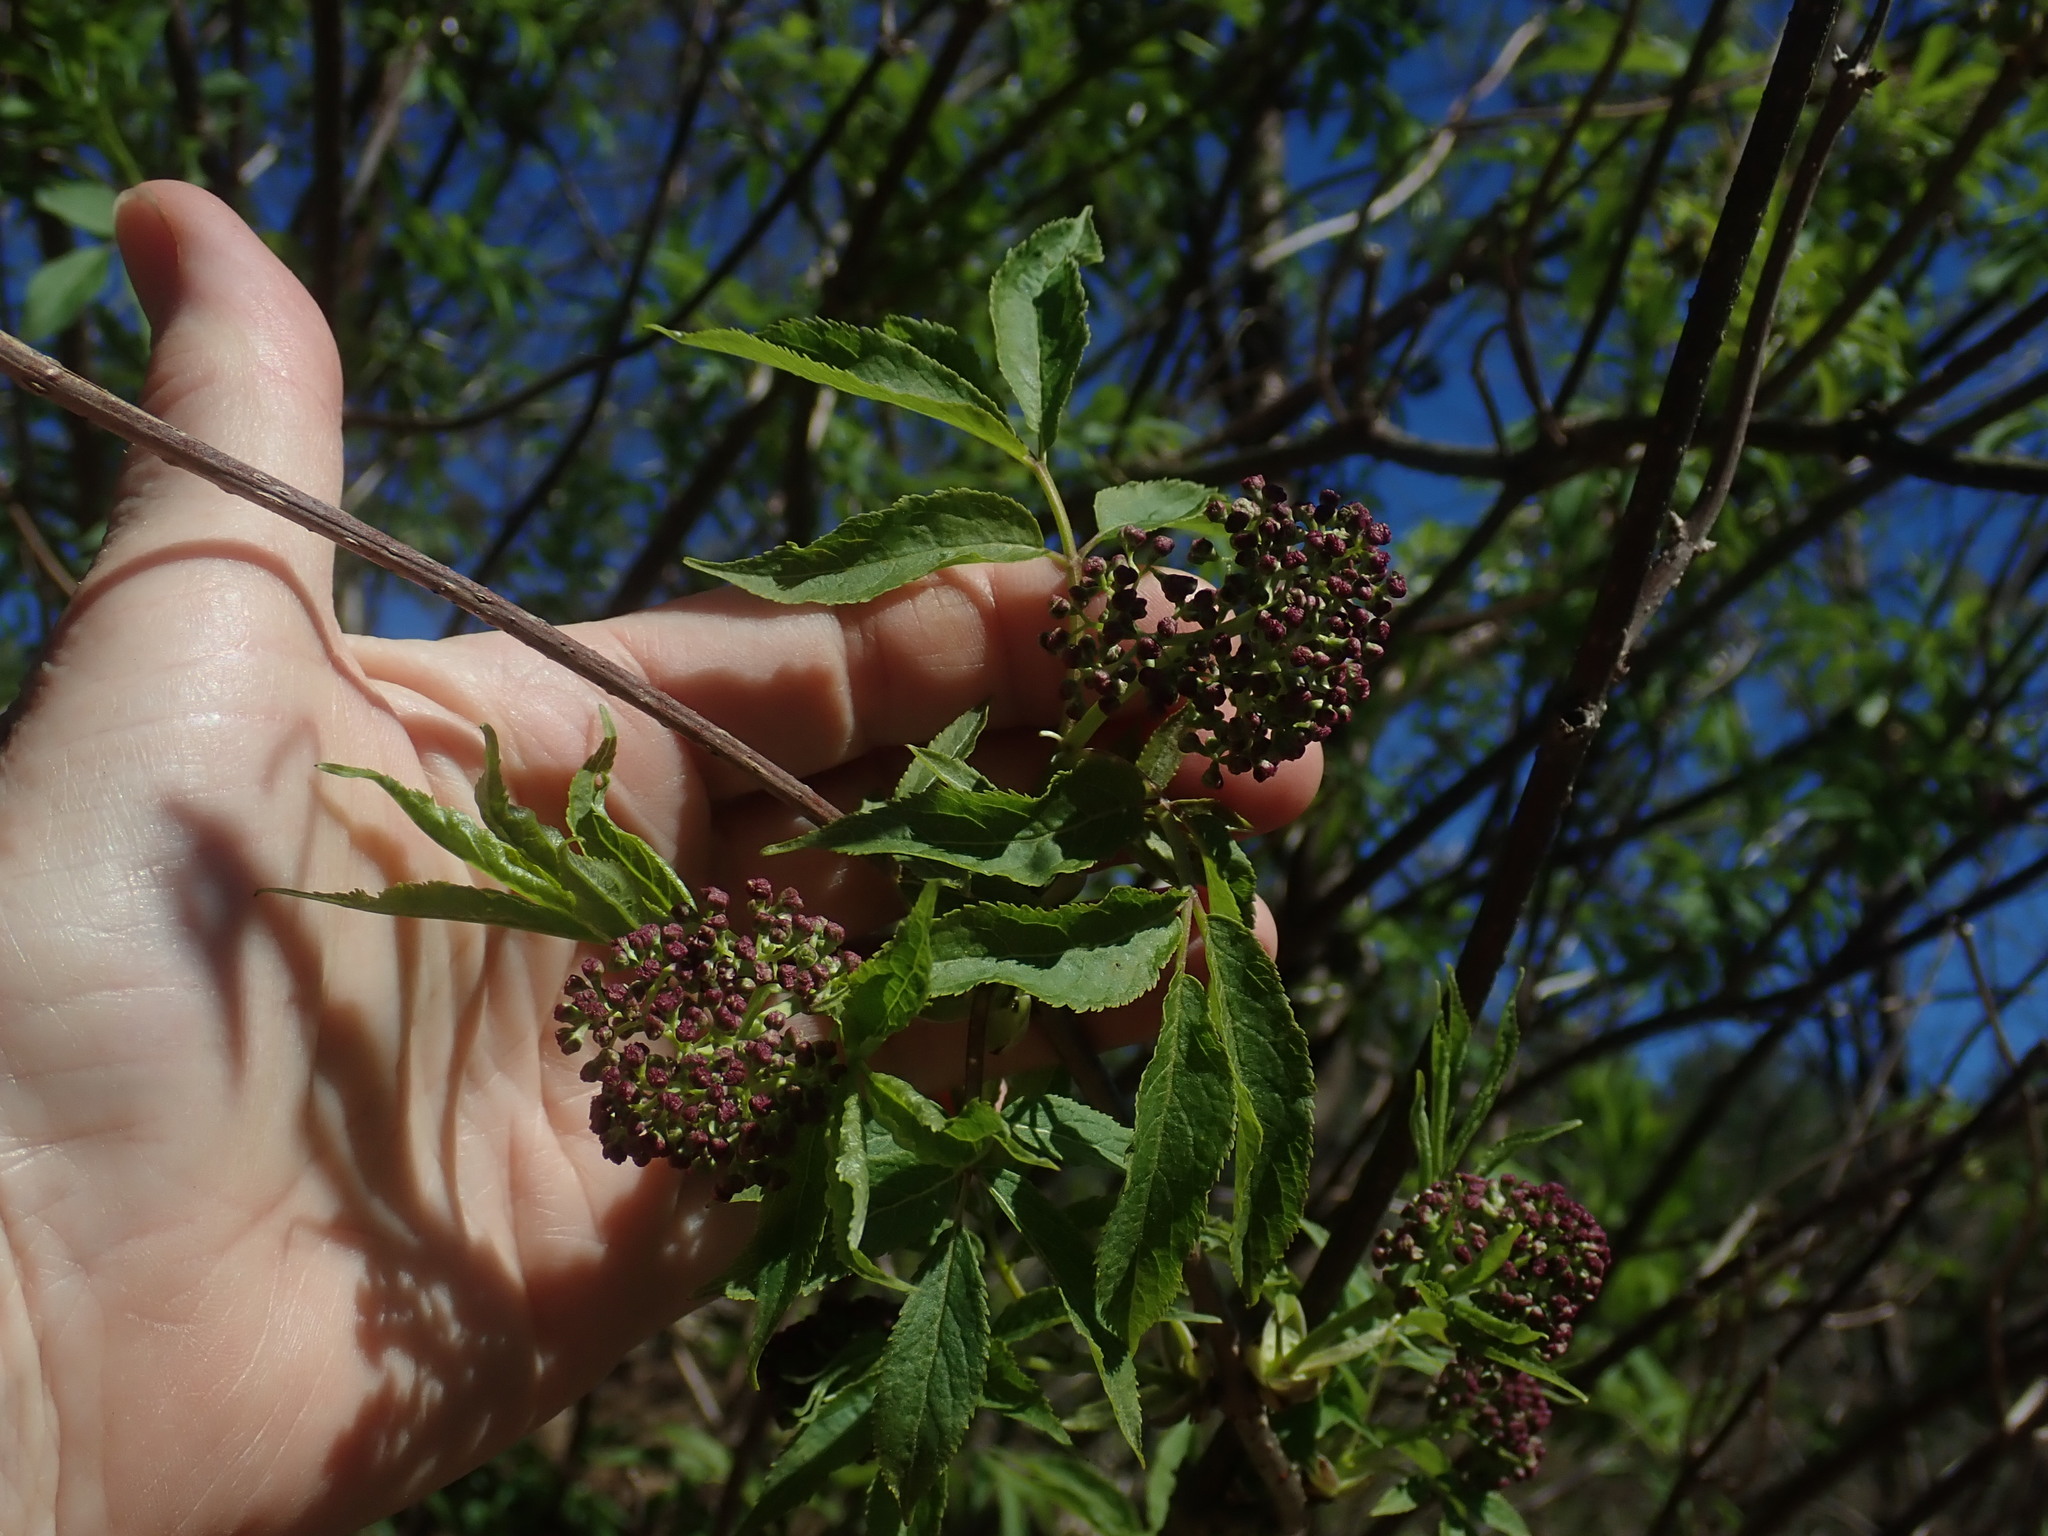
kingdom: Plantae
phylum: Tracheophyta
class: Magnoliopsida
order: Dipsacales
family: Viburnaceae
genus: Sambucus
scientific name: Sambucus racemosa
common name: Red-berried elder
